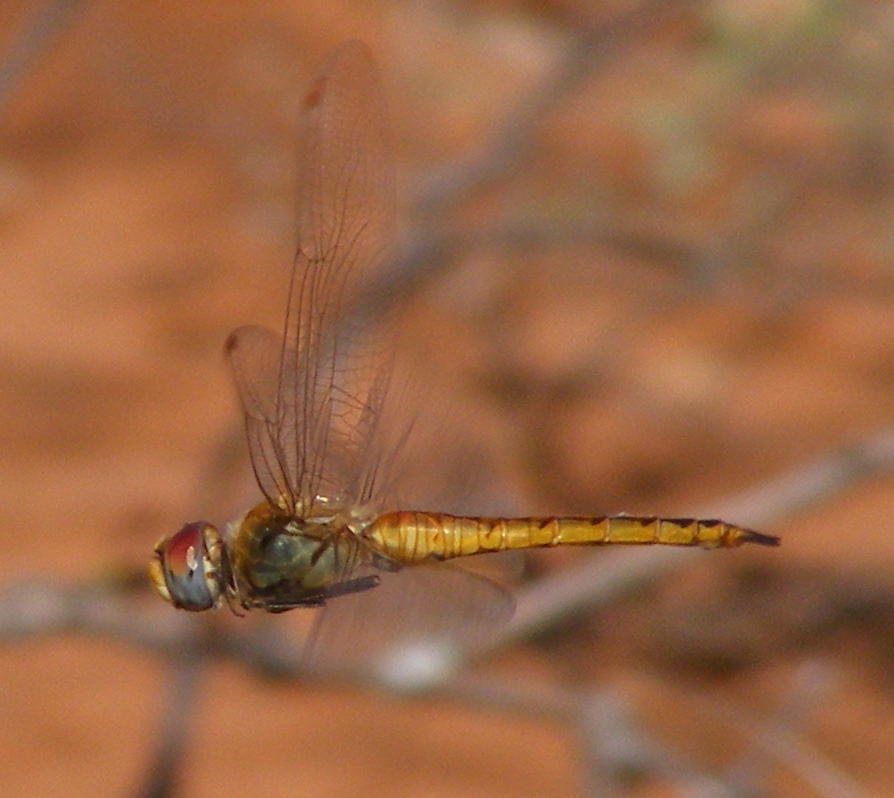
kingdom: Animalia
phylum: Arthropoda
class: Insecta
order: Odonata
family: Libellulidae
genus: Pantala
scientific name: Pantala flavescens
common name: Wandering glider
